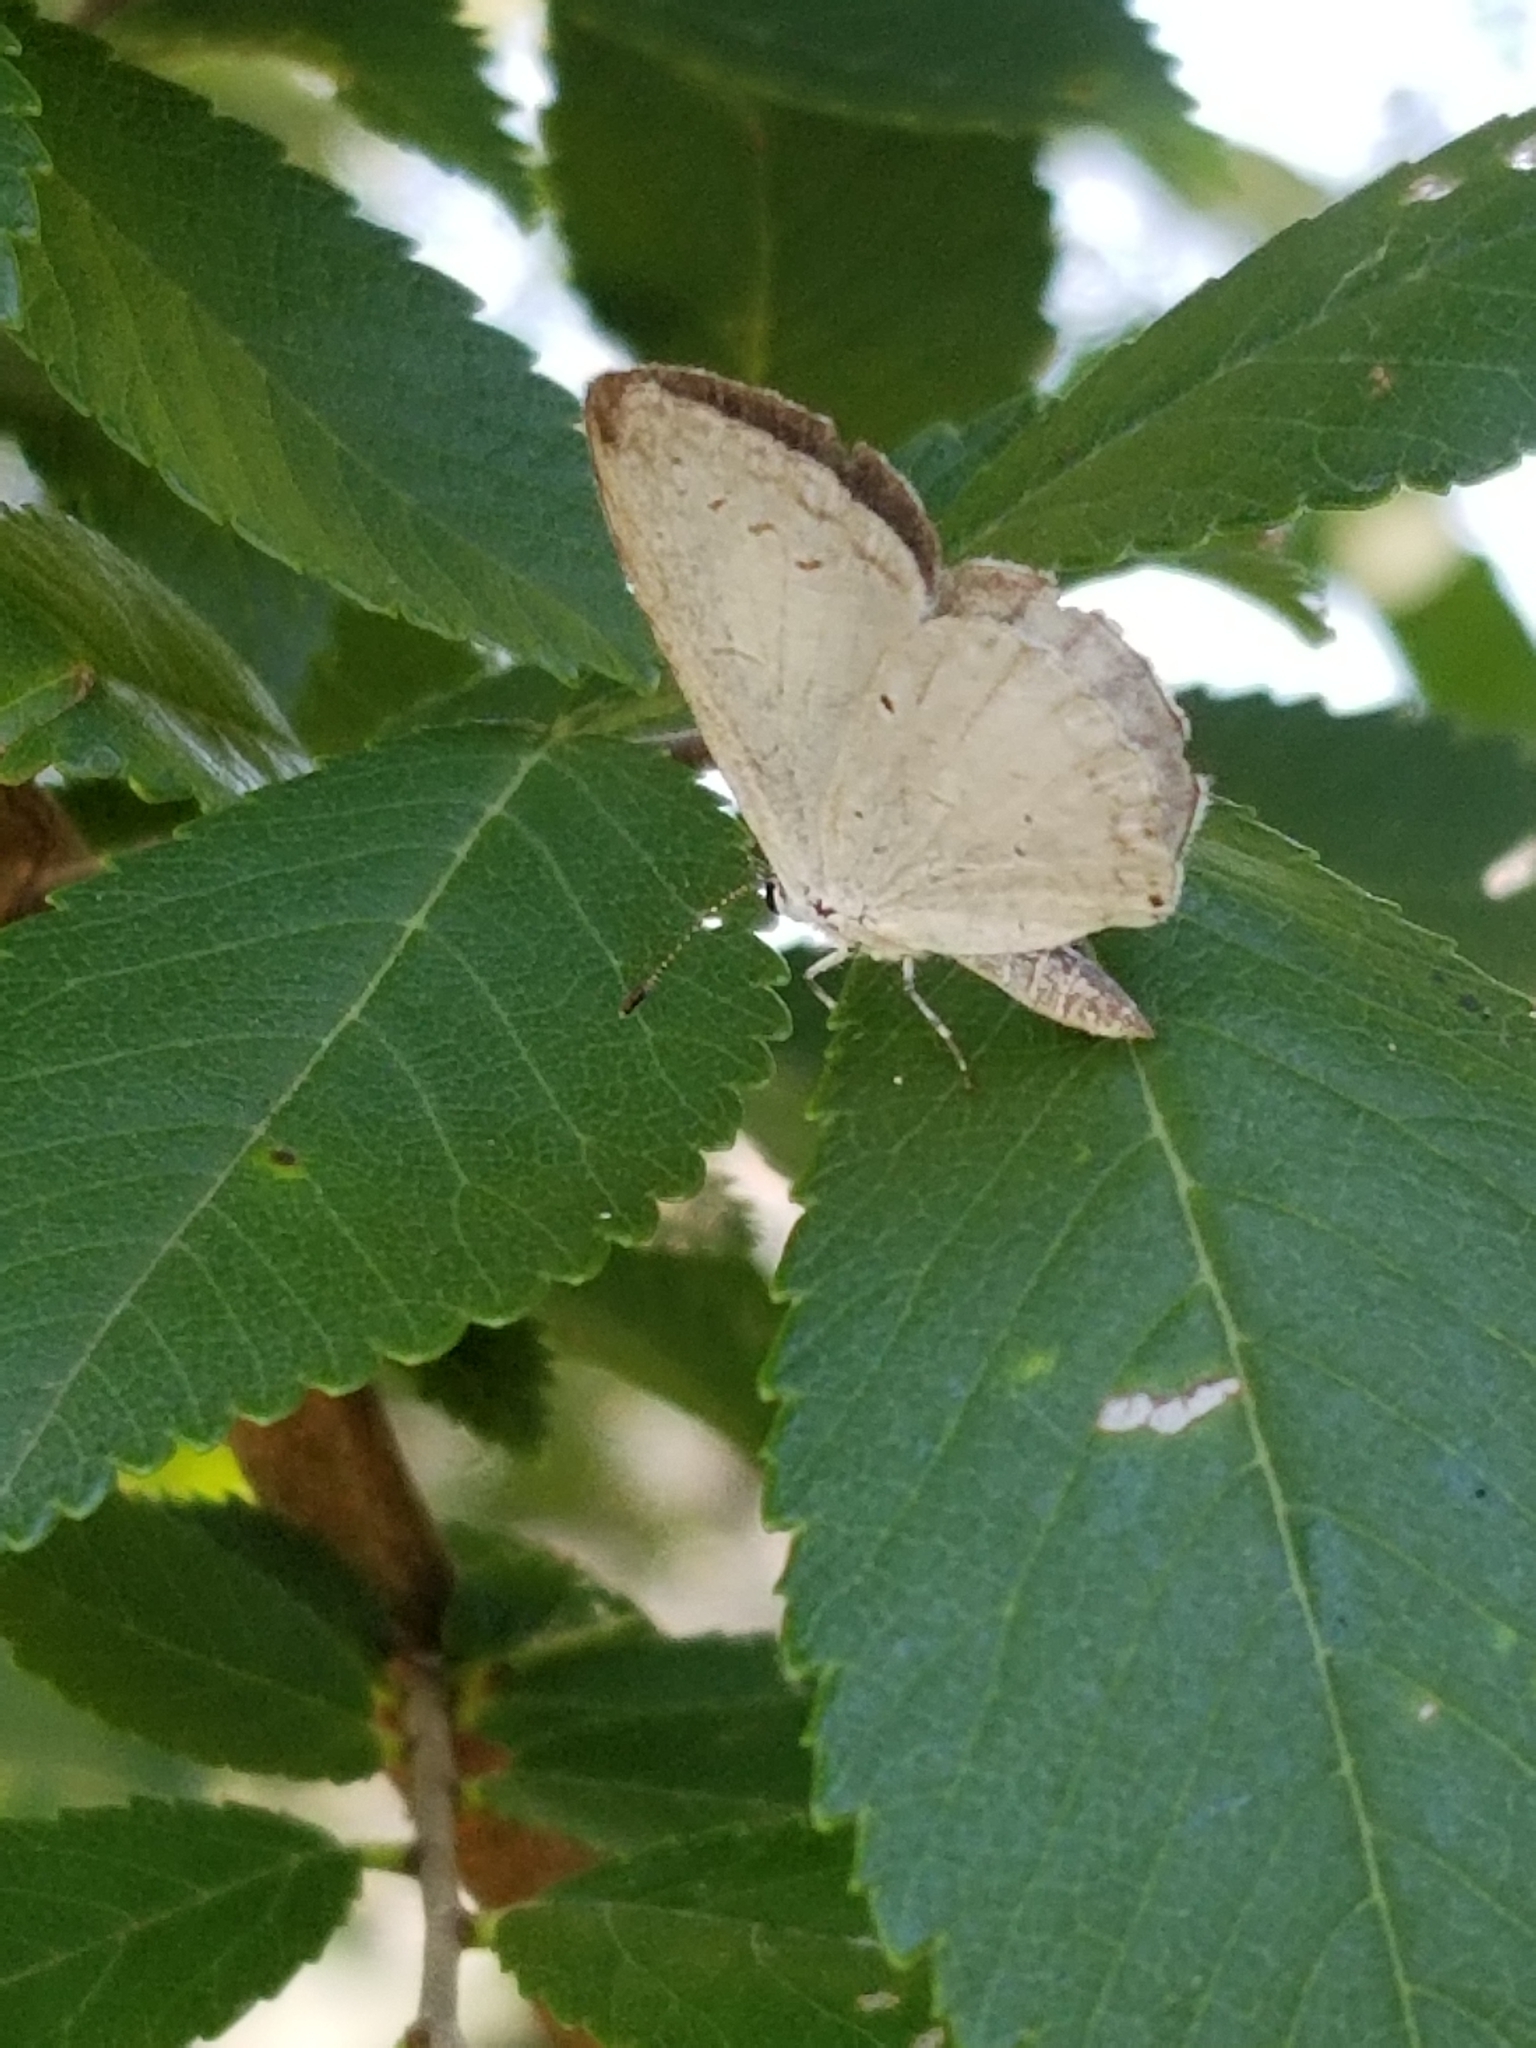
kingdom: Animalia
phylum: Arthropoda
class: Insecta
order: Lepidoptera
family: Lycaenidae
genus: Cyaniris
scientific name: Cyaniris neglecta
